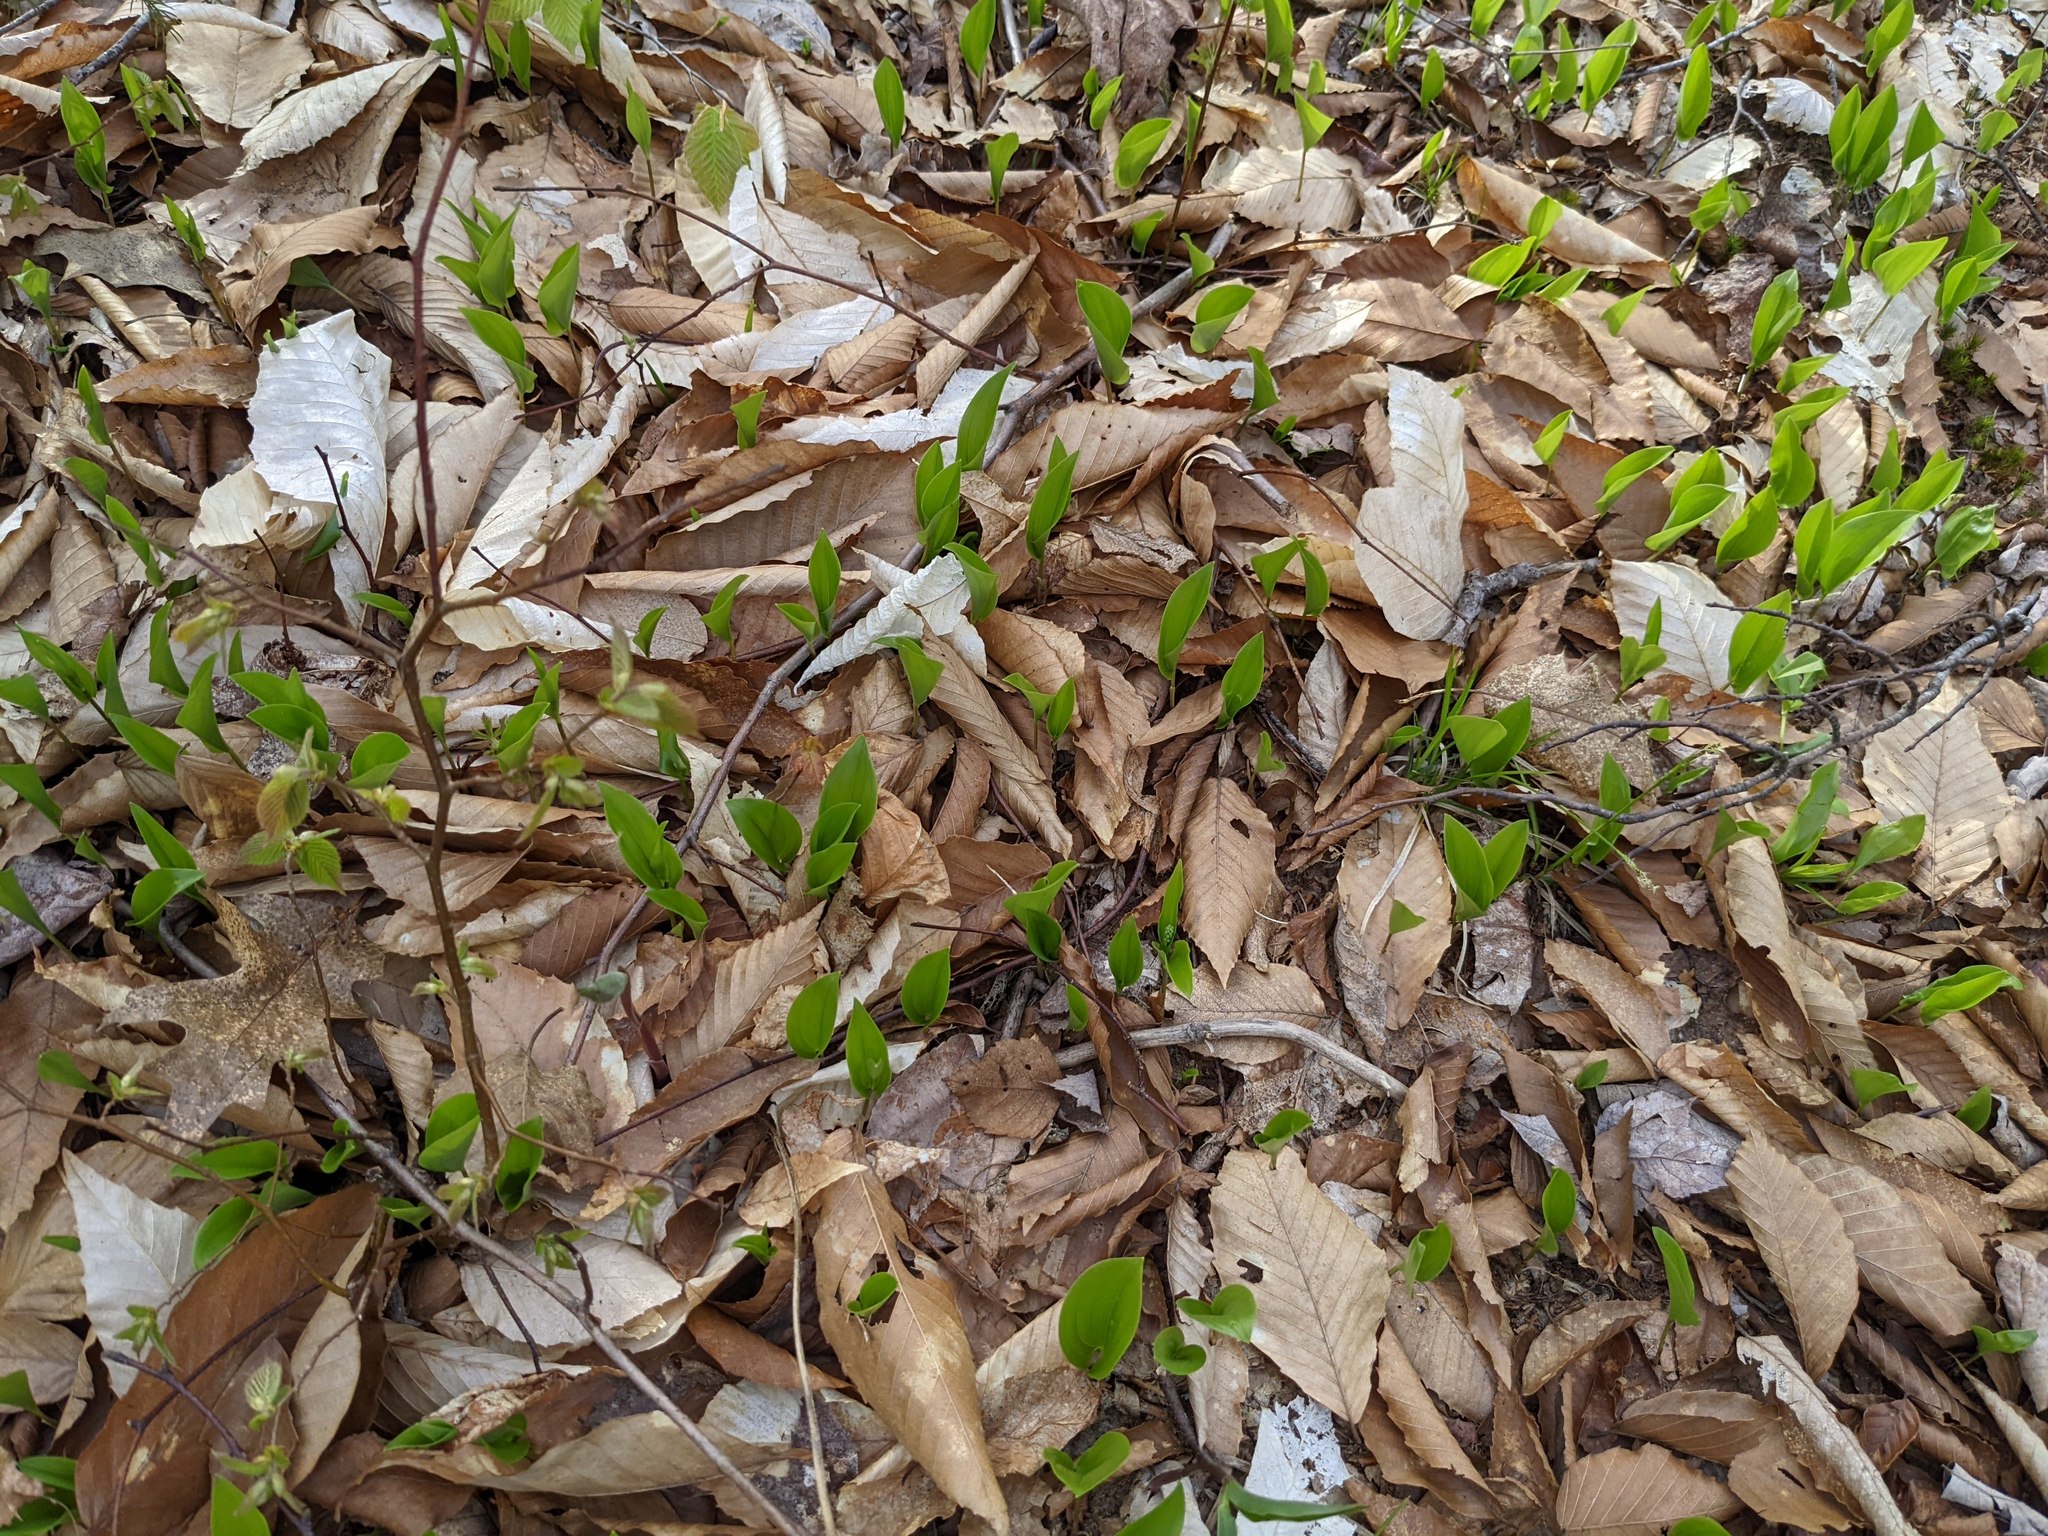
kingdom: Plantae
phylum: Tracheophyta
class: Liliopsida
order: Asparagales
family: Asparagaceae
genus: Maianthemum
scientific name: Maianthemum canadense
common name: False lily-of-the-valley
